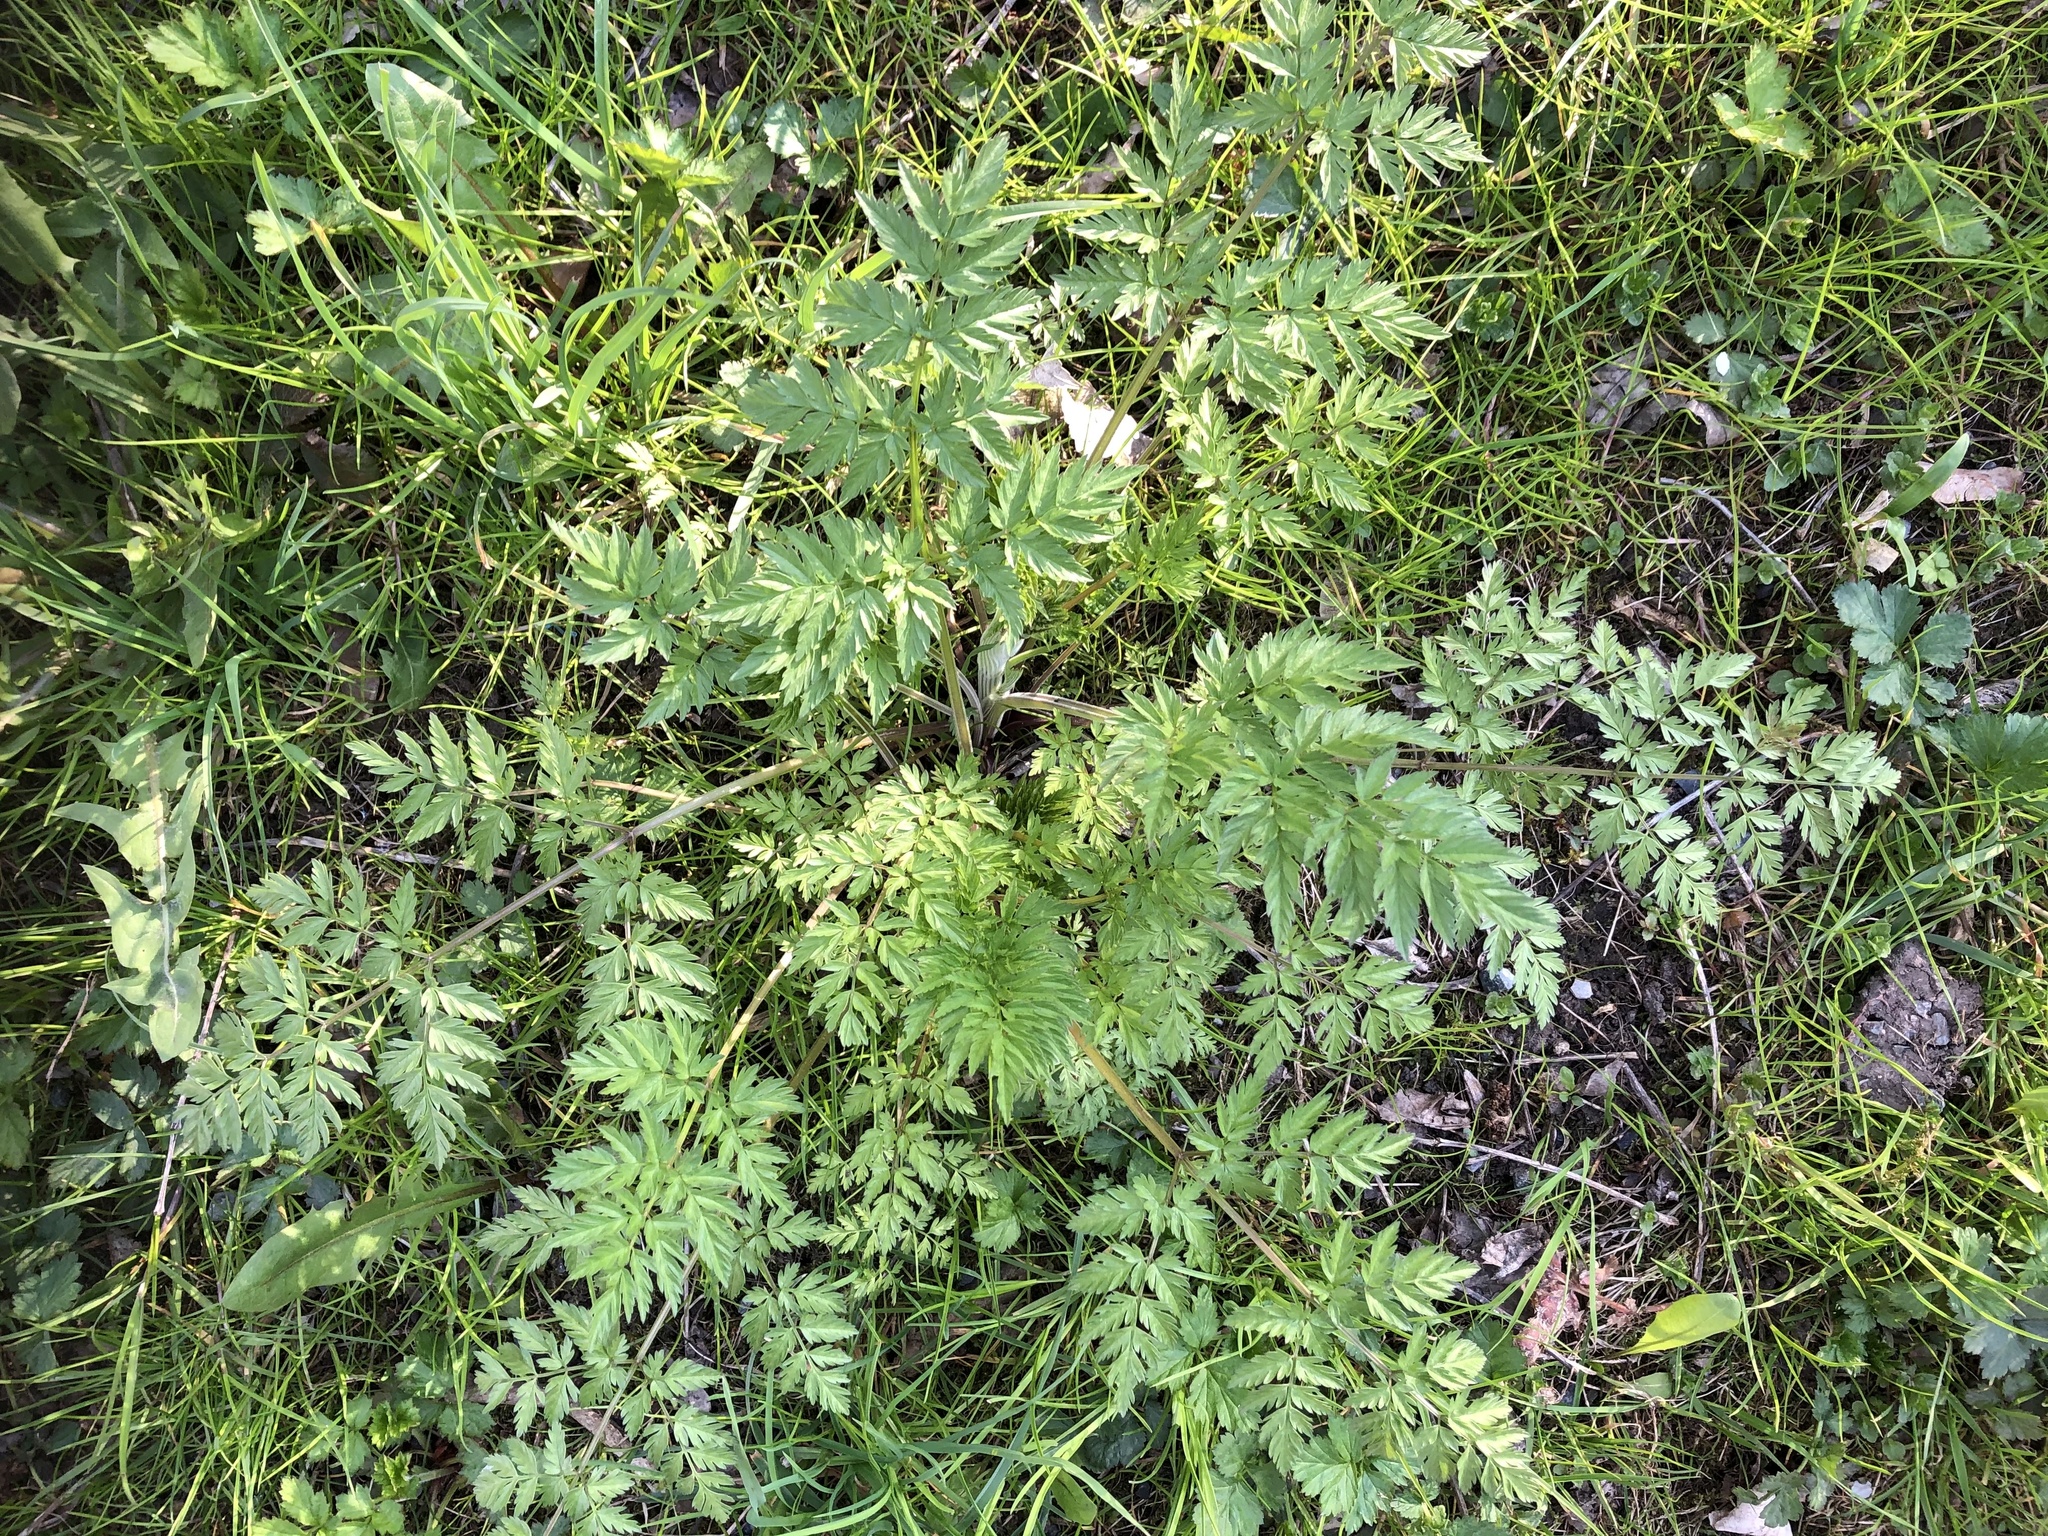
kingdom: Plantae
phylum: Tracheophyta
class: Magnoliopsida
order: Apiales
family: Apiaceae
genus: Anthriscus
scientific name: Anthriscus sylvestris
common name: Cow parsley
